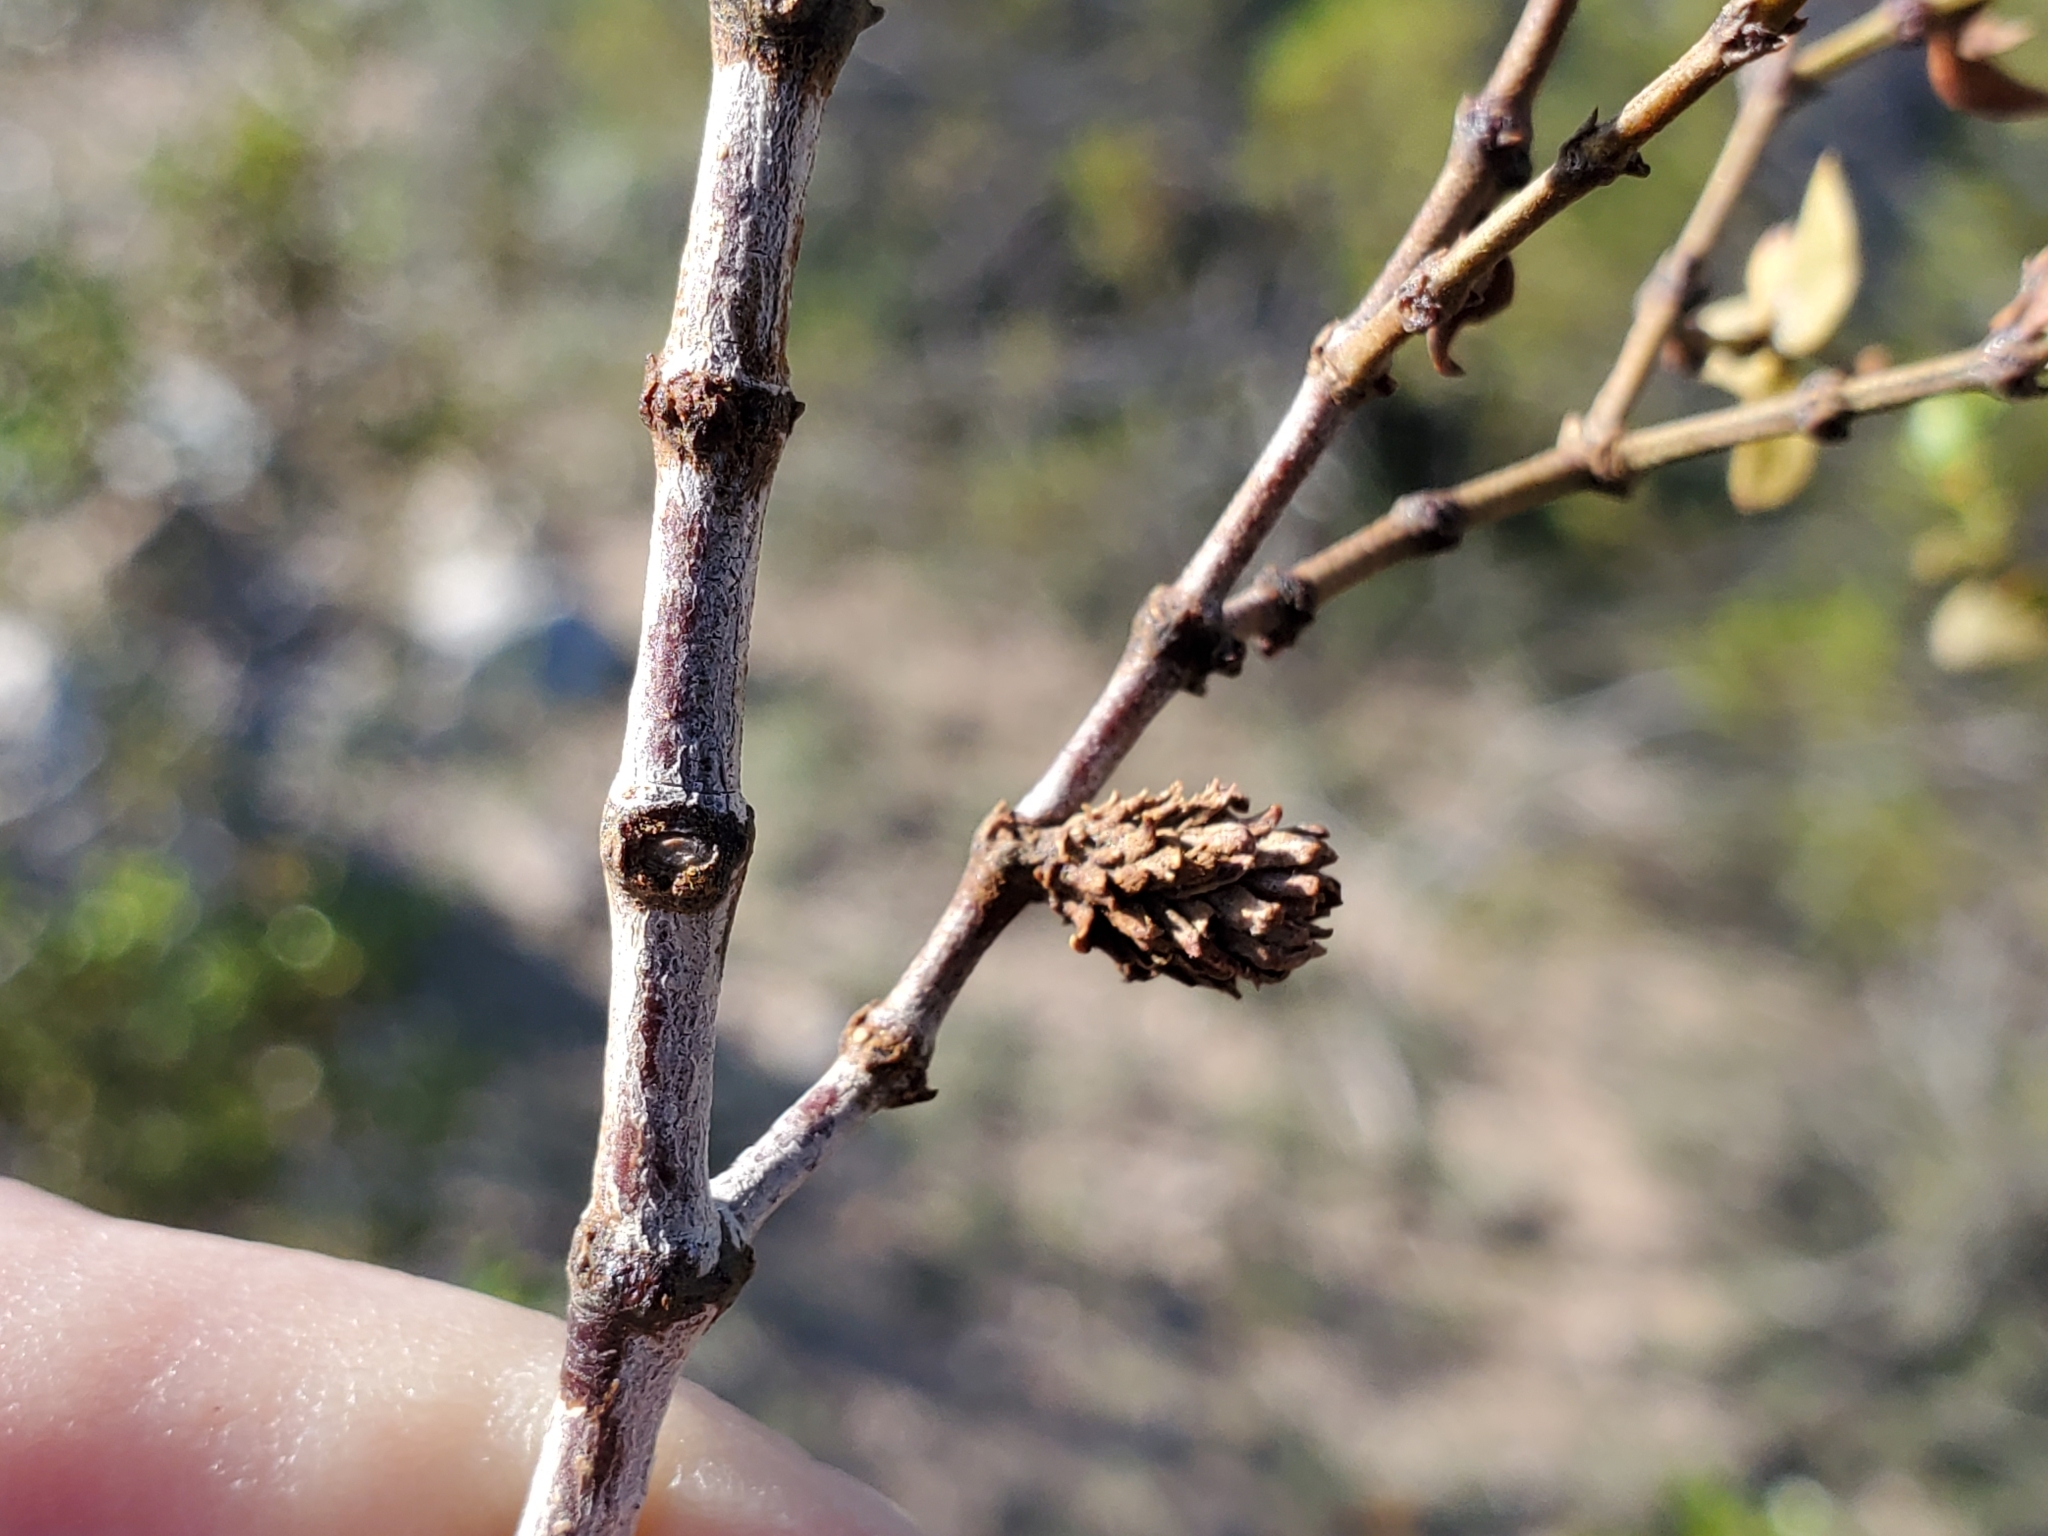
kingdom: Animalia
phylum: Arthropoda
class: Insecta
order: Diptera
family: Cecidomyiidae
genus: Asphondylia
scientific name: Asphondylia rosetta
